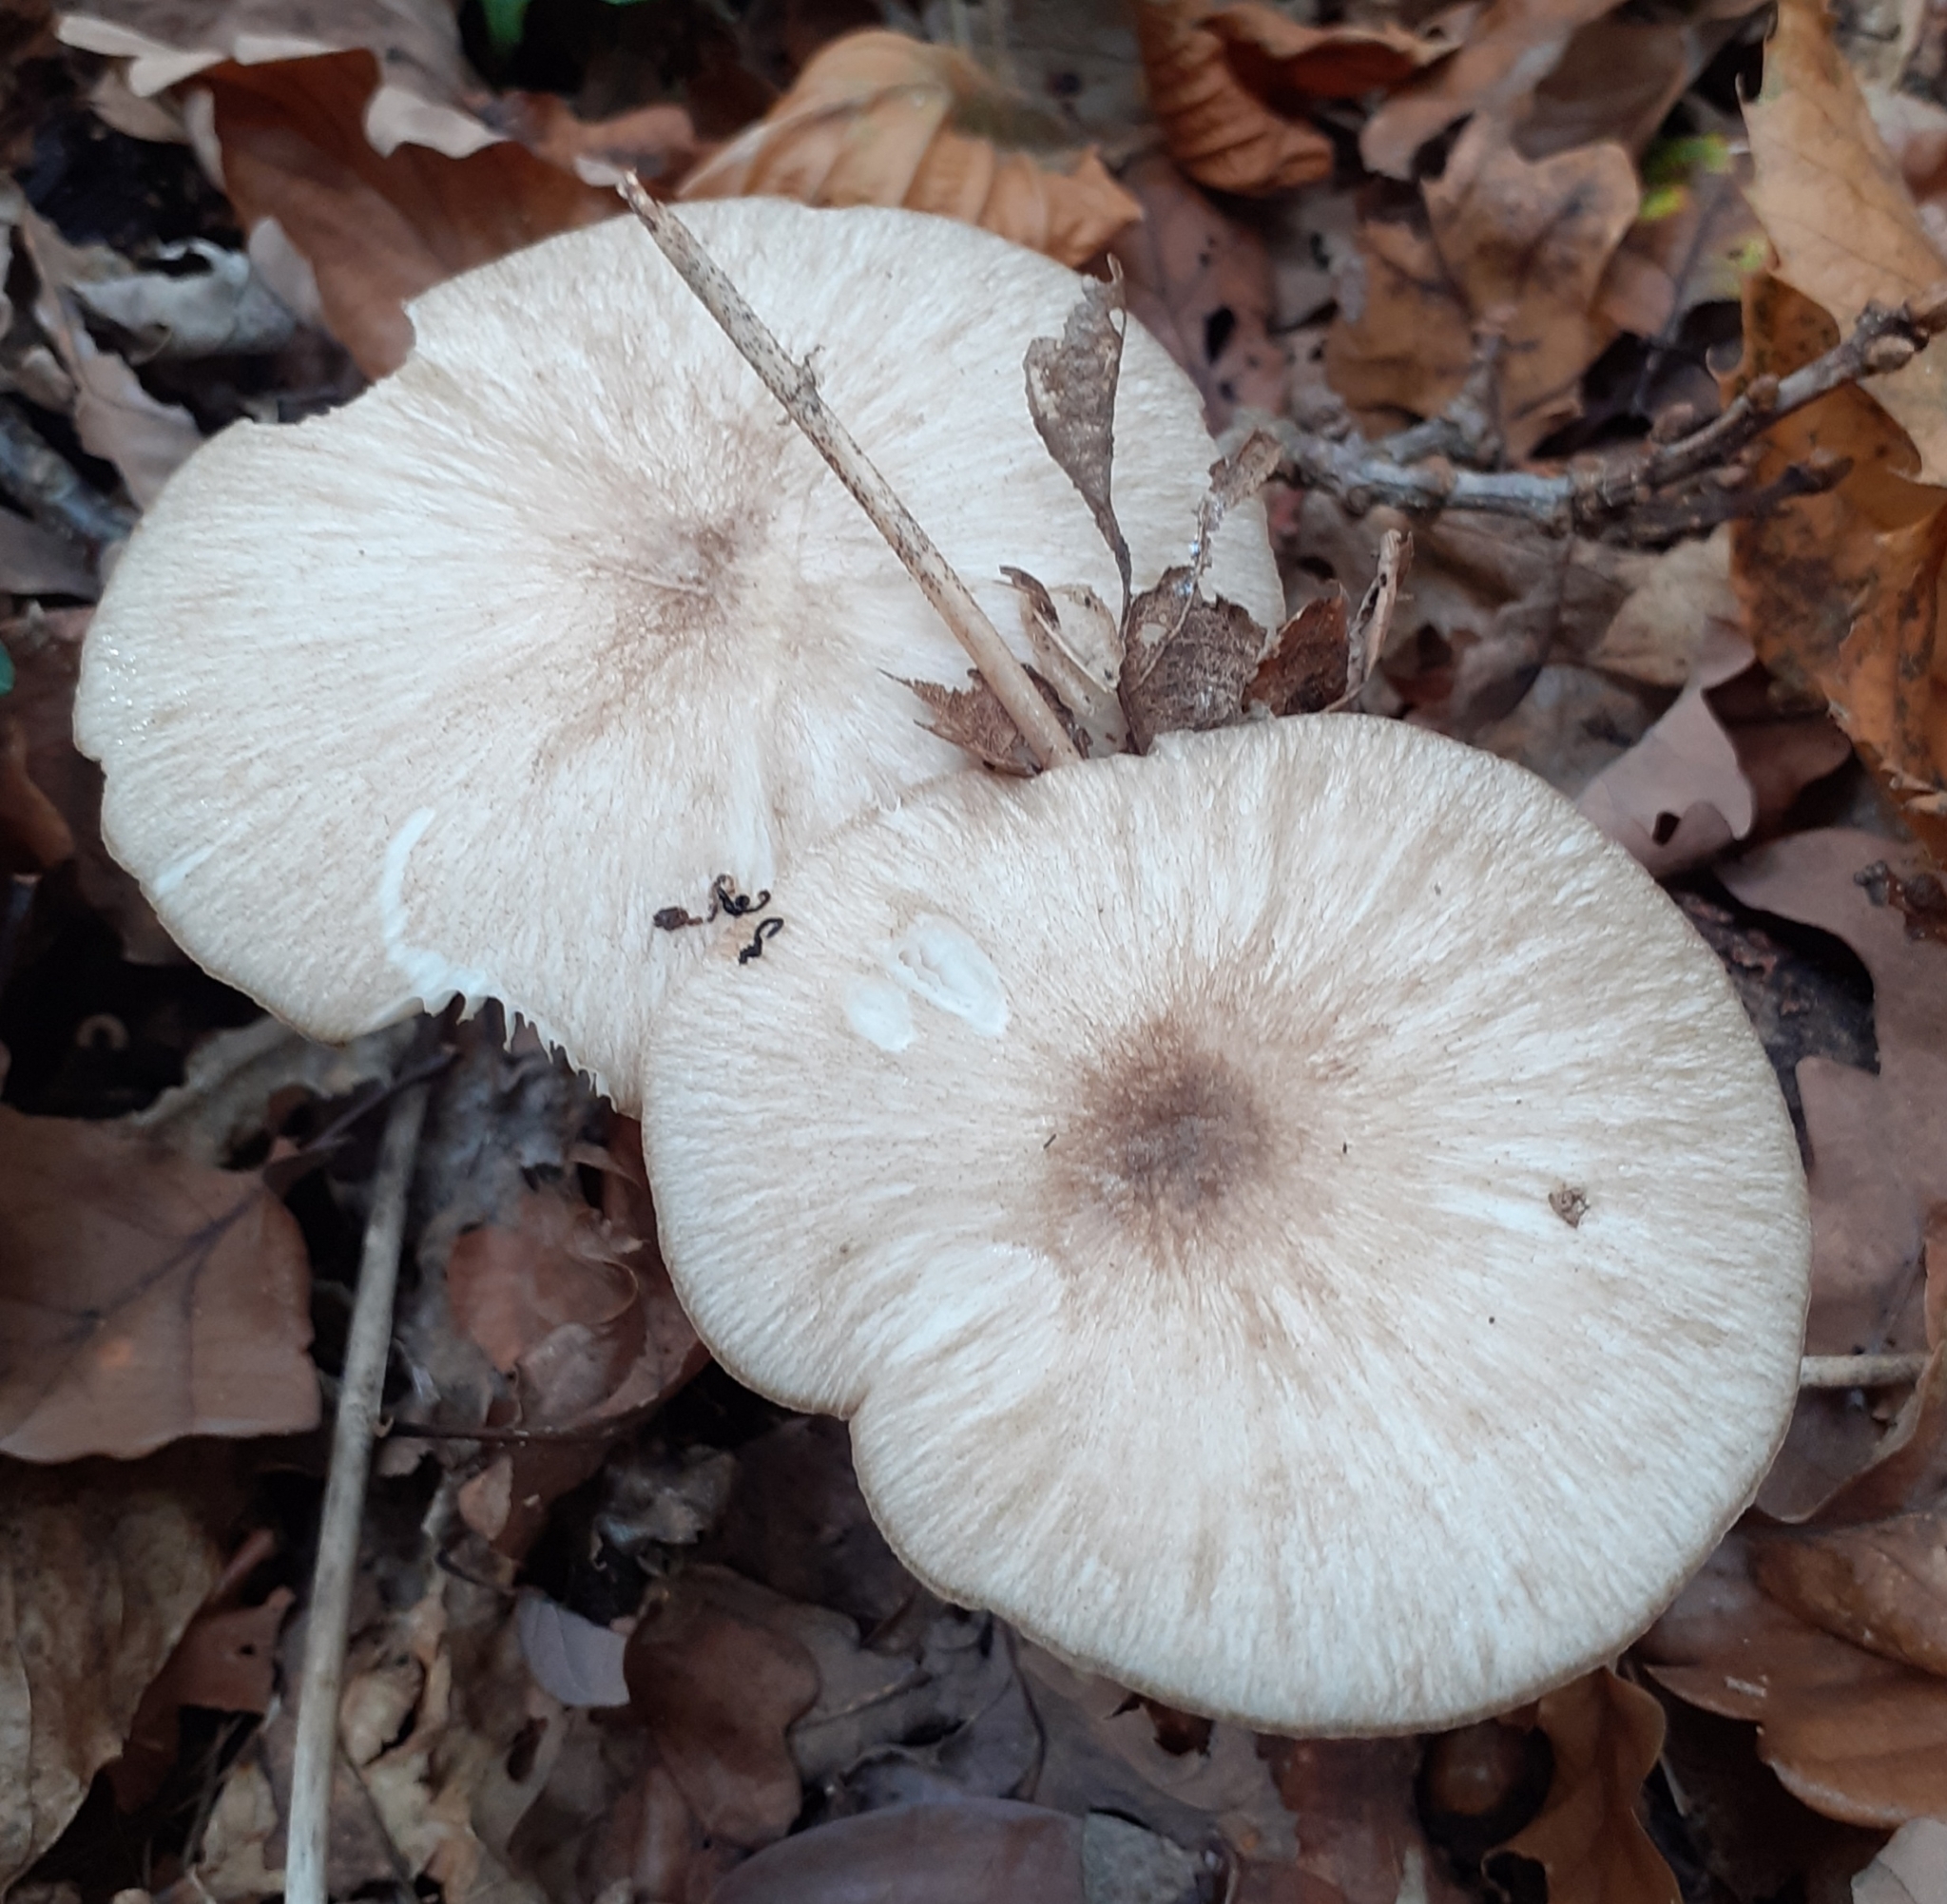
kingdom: Fungi
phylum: Basidiomycota
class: Agaricomycetes
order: Agaricales
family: Tricholomataceae
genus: Megacollybia
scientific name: Megacollybia platyphylla
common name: Whitelaced shank
